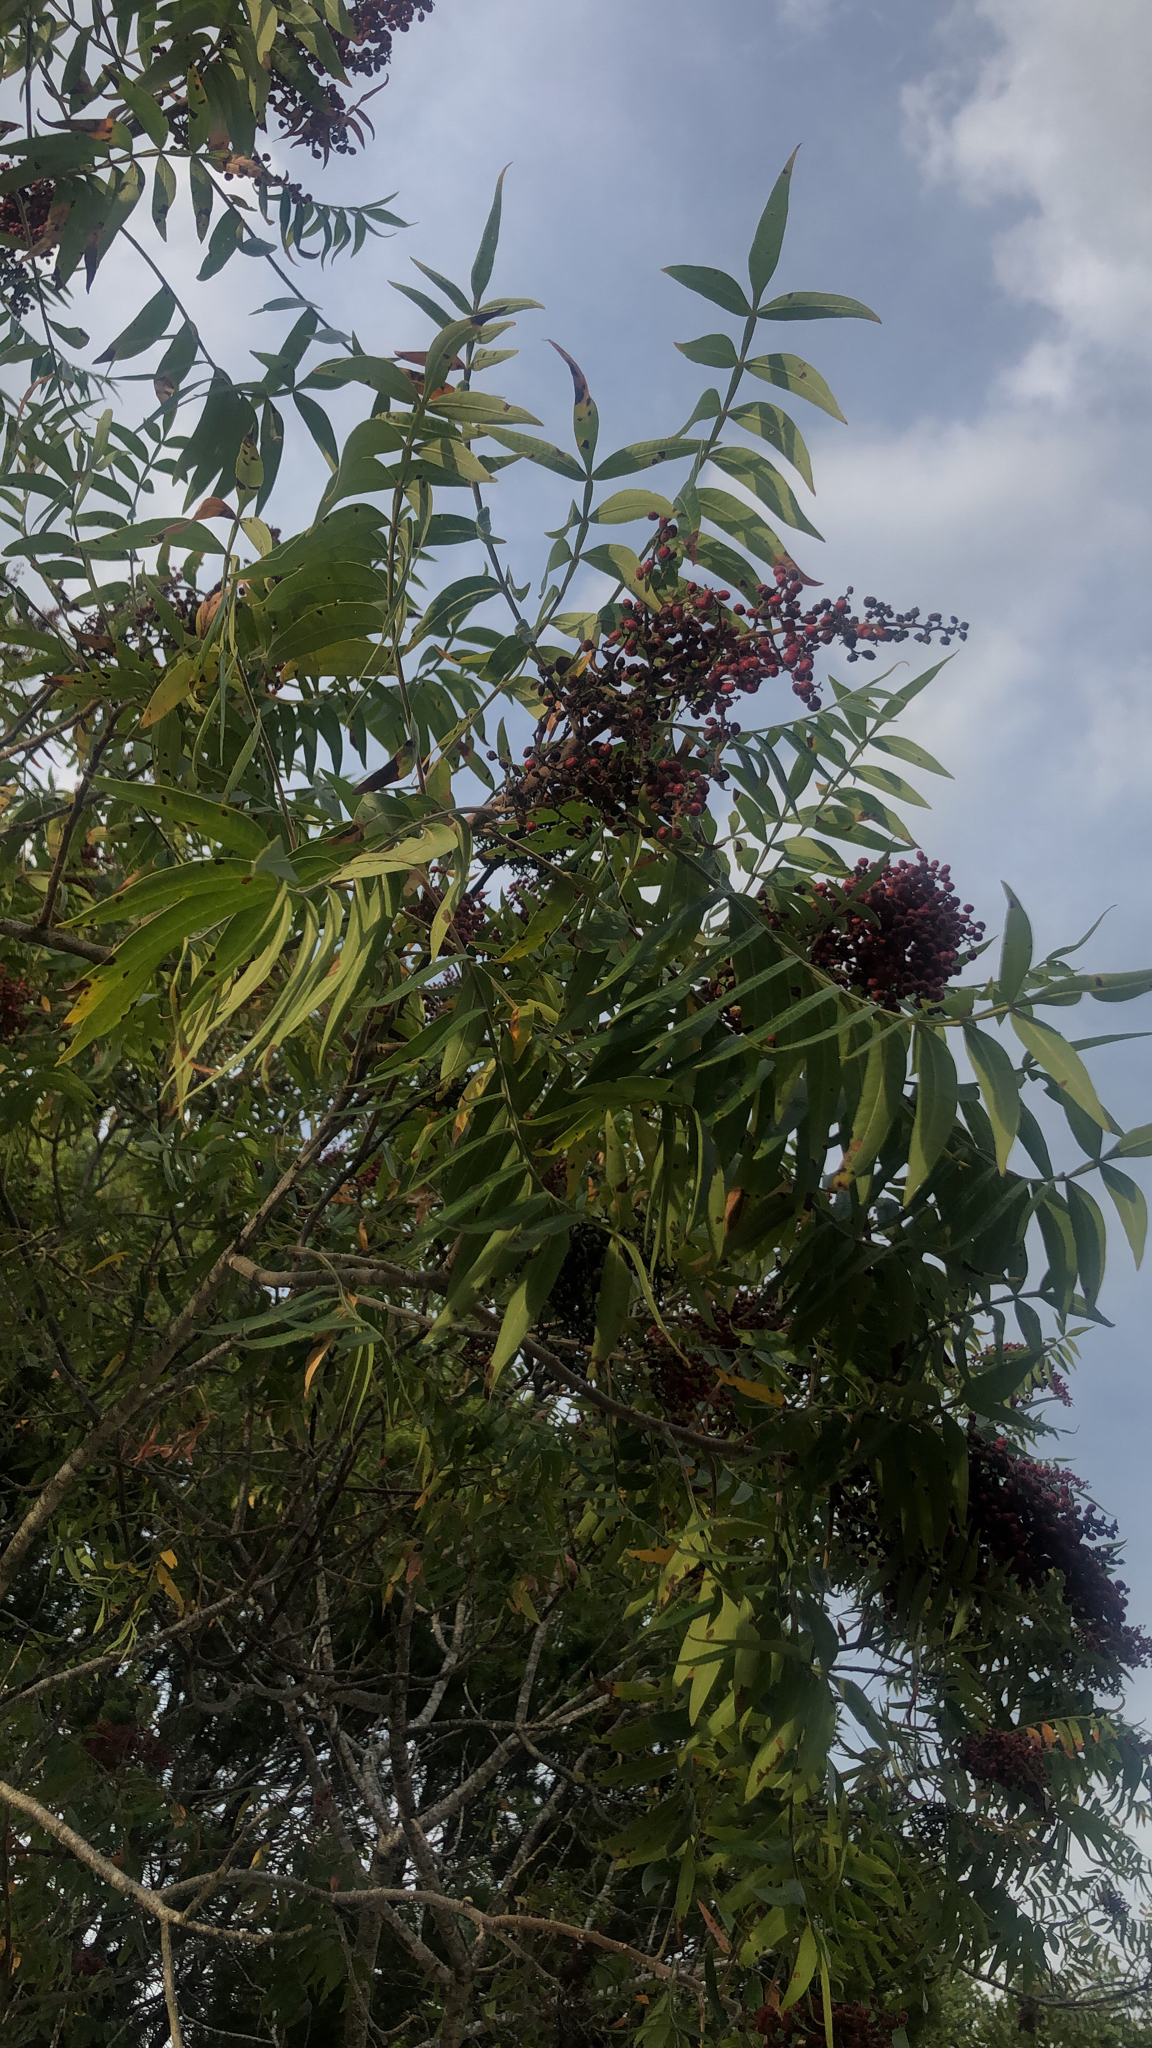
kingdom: Plantae
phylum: Tracheophyta
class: Magnoliopsida
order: Sapindales
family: Anacardiaceae
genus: Rhus
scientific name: Rhus lanceolata
